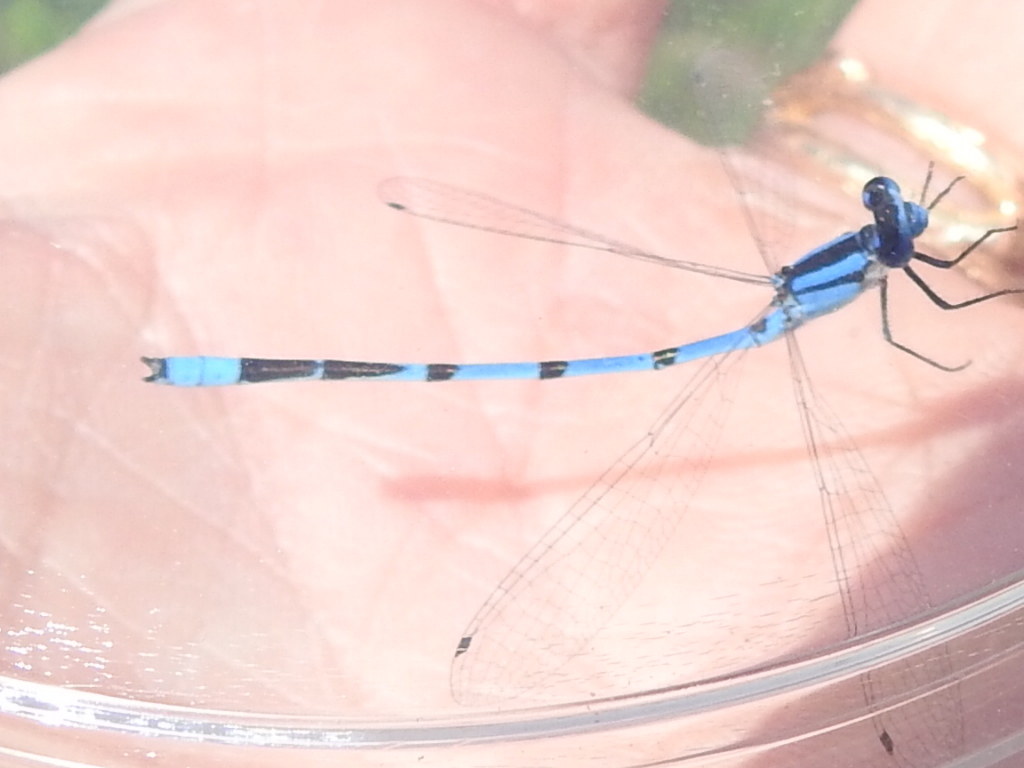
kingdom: Animalia
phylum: Arthropoda
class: Insecta
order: Odonata
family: Coenagrionidae
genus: Enallagma
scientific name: Enallagma civile
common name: Damselfly
